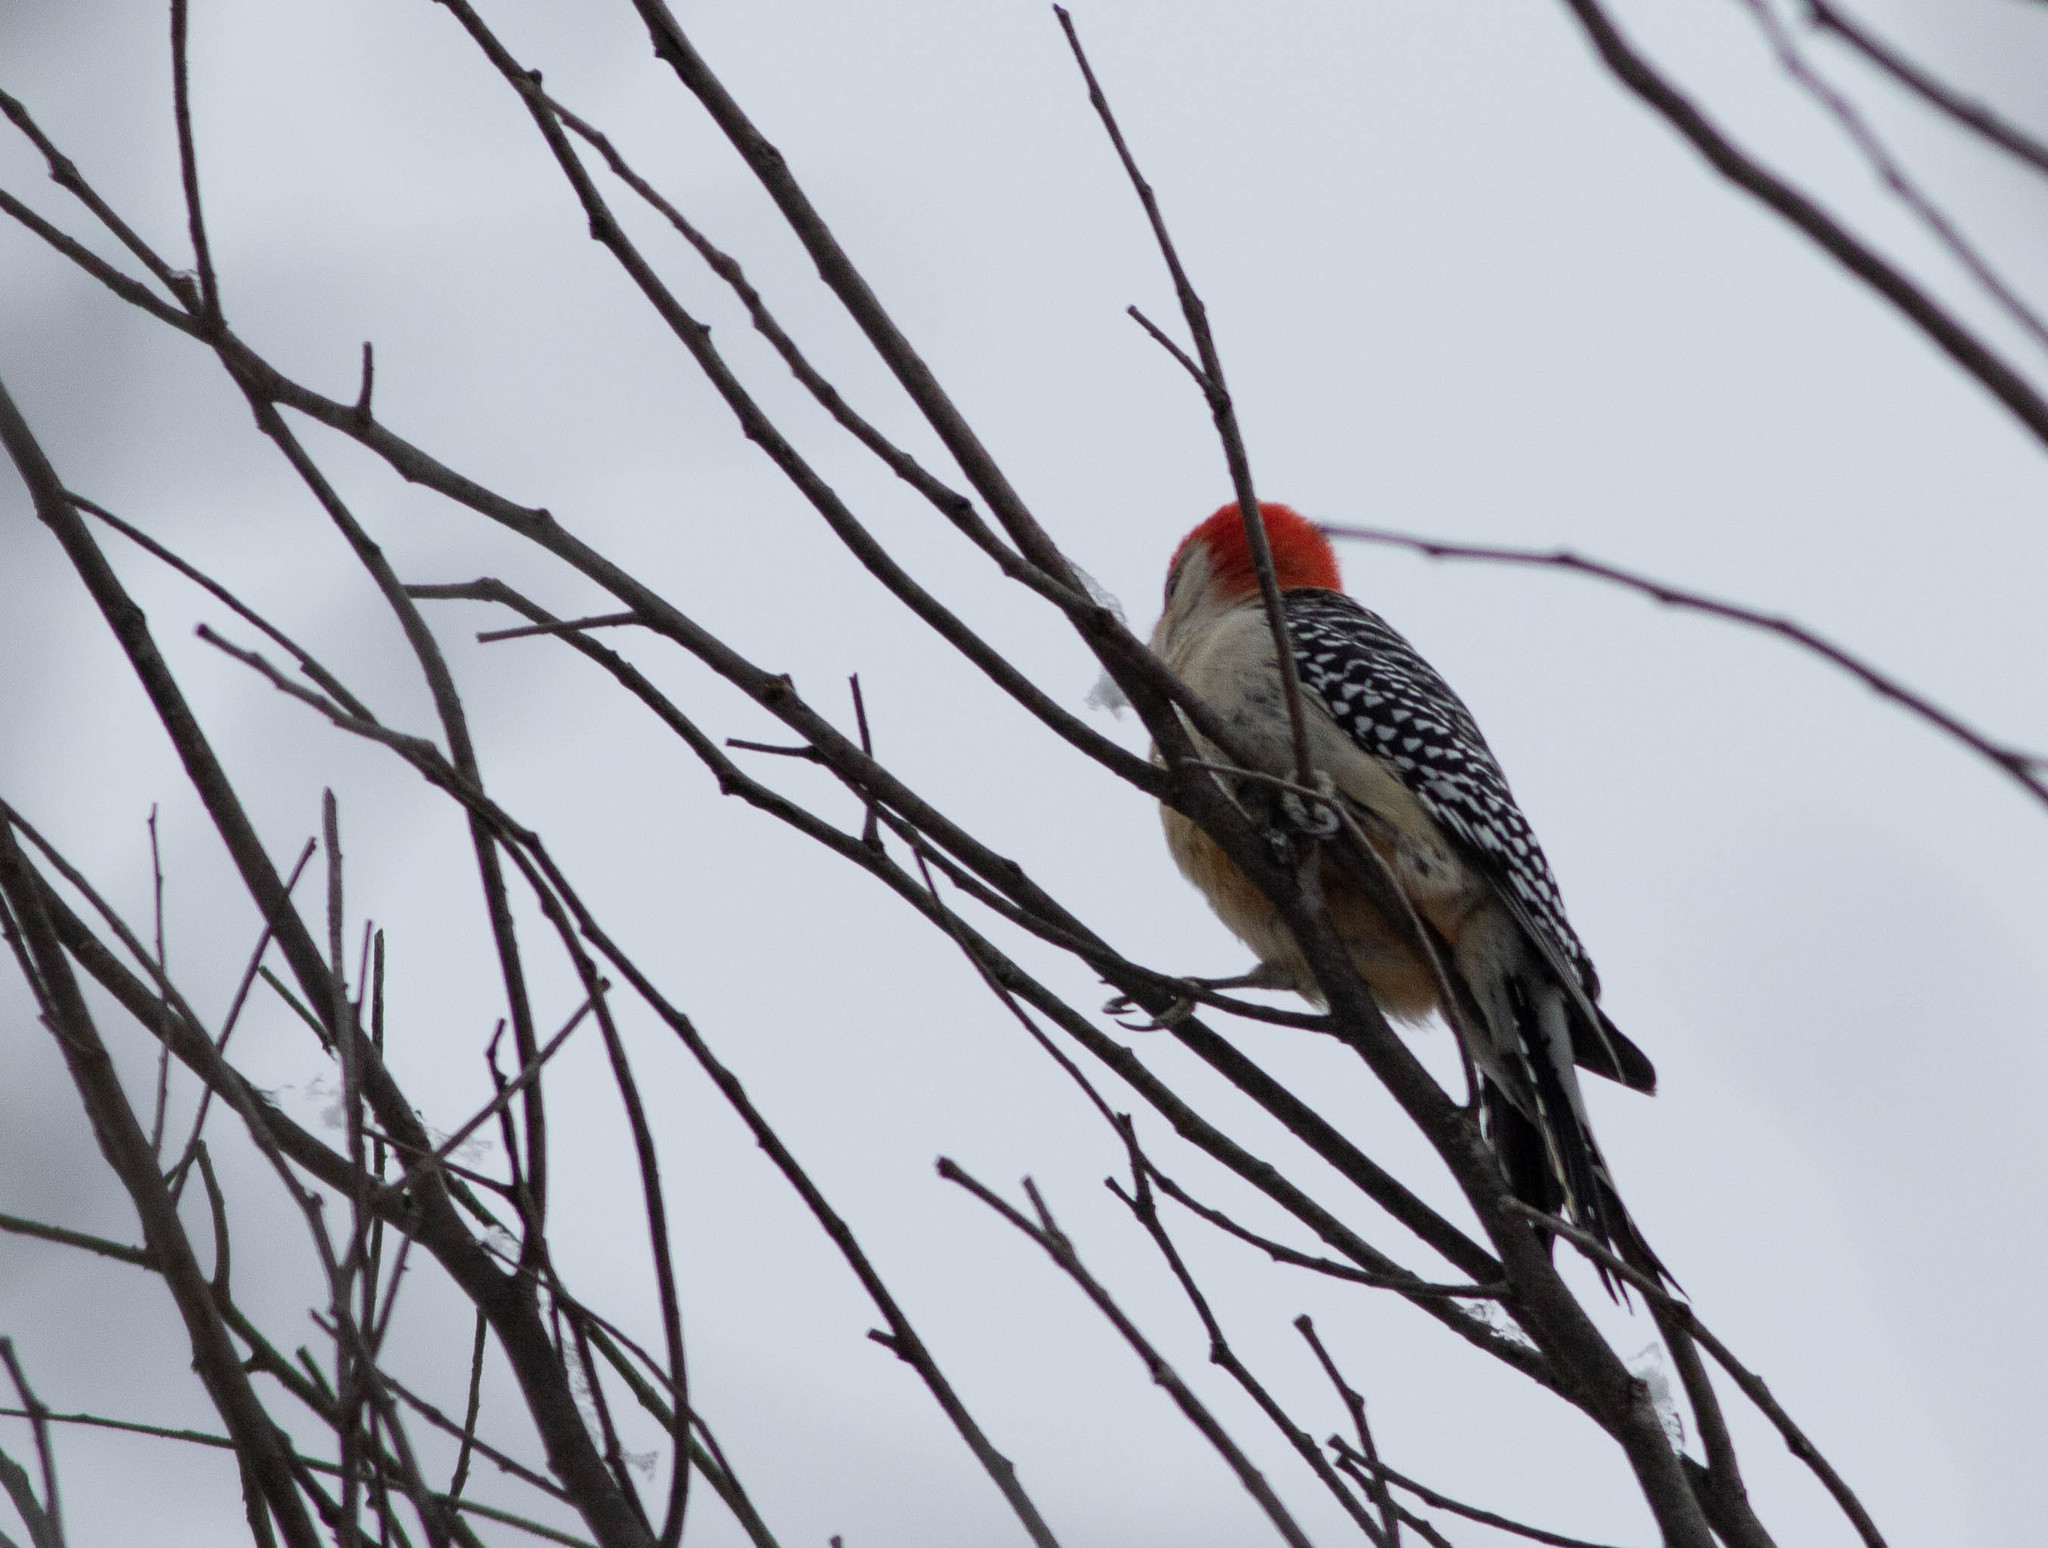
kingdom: Animalia
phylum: Chordata
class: Aves
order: Piciformes
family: Picidae
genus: Melanerpes
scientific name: Melanerpes carolinus
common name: Red-bellied woodpecker
